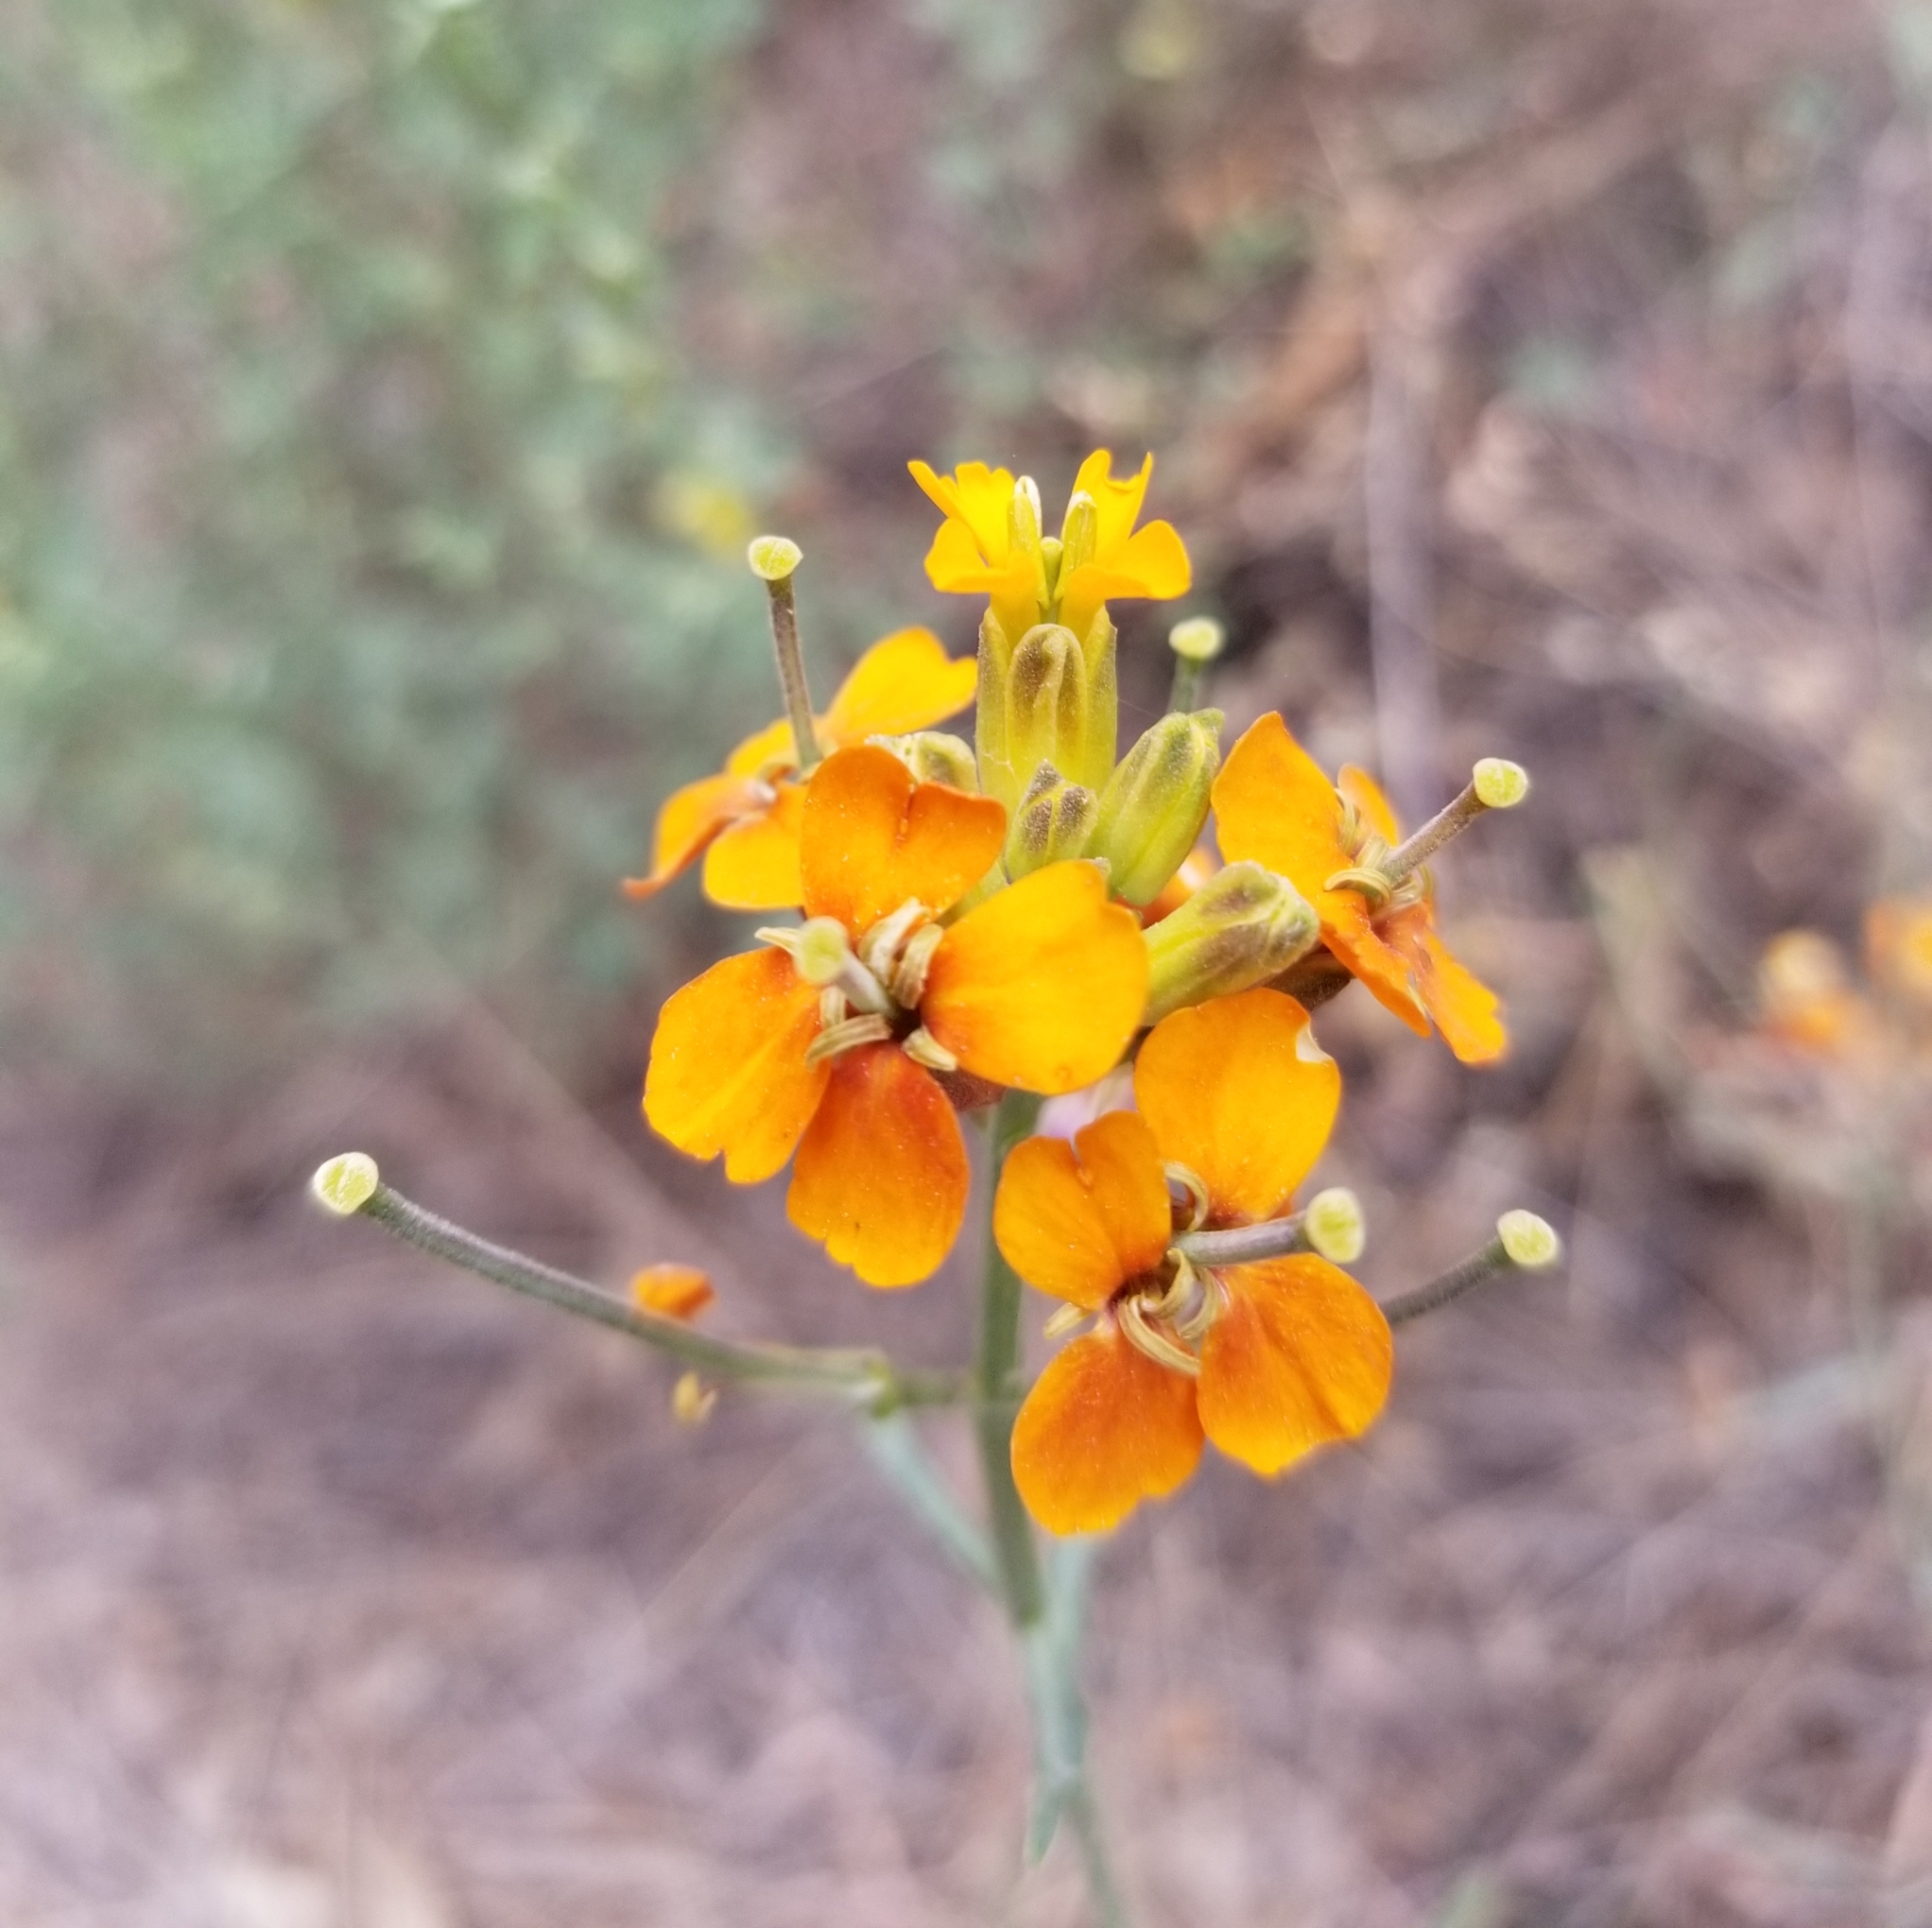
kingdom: Plantae
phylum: Tracheophyta
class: Magnoliopsida
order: Brassicales
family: Brassicaceae
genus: Erysimum
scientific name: Erysimum capitatum
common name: Western wallflower
